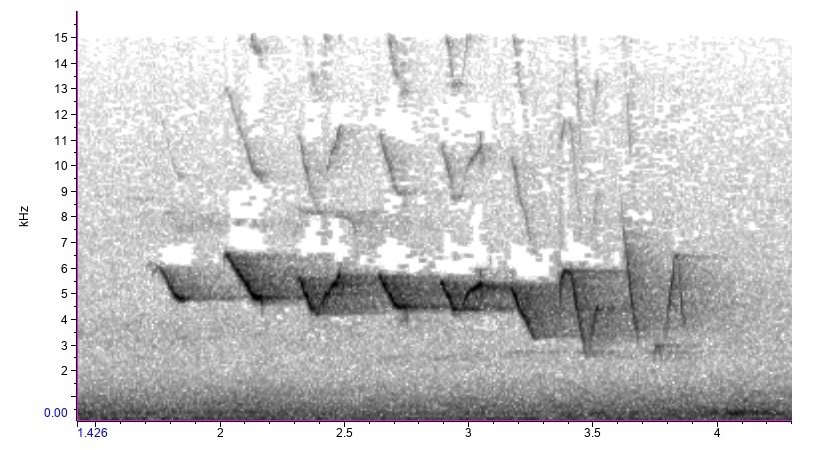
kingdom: Animalia
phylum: Chordata
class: Aves
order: Passeriformes
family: Parulidae
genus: Parkesia
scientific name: Parkesia motacilla
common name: Louisiana waterthrush
